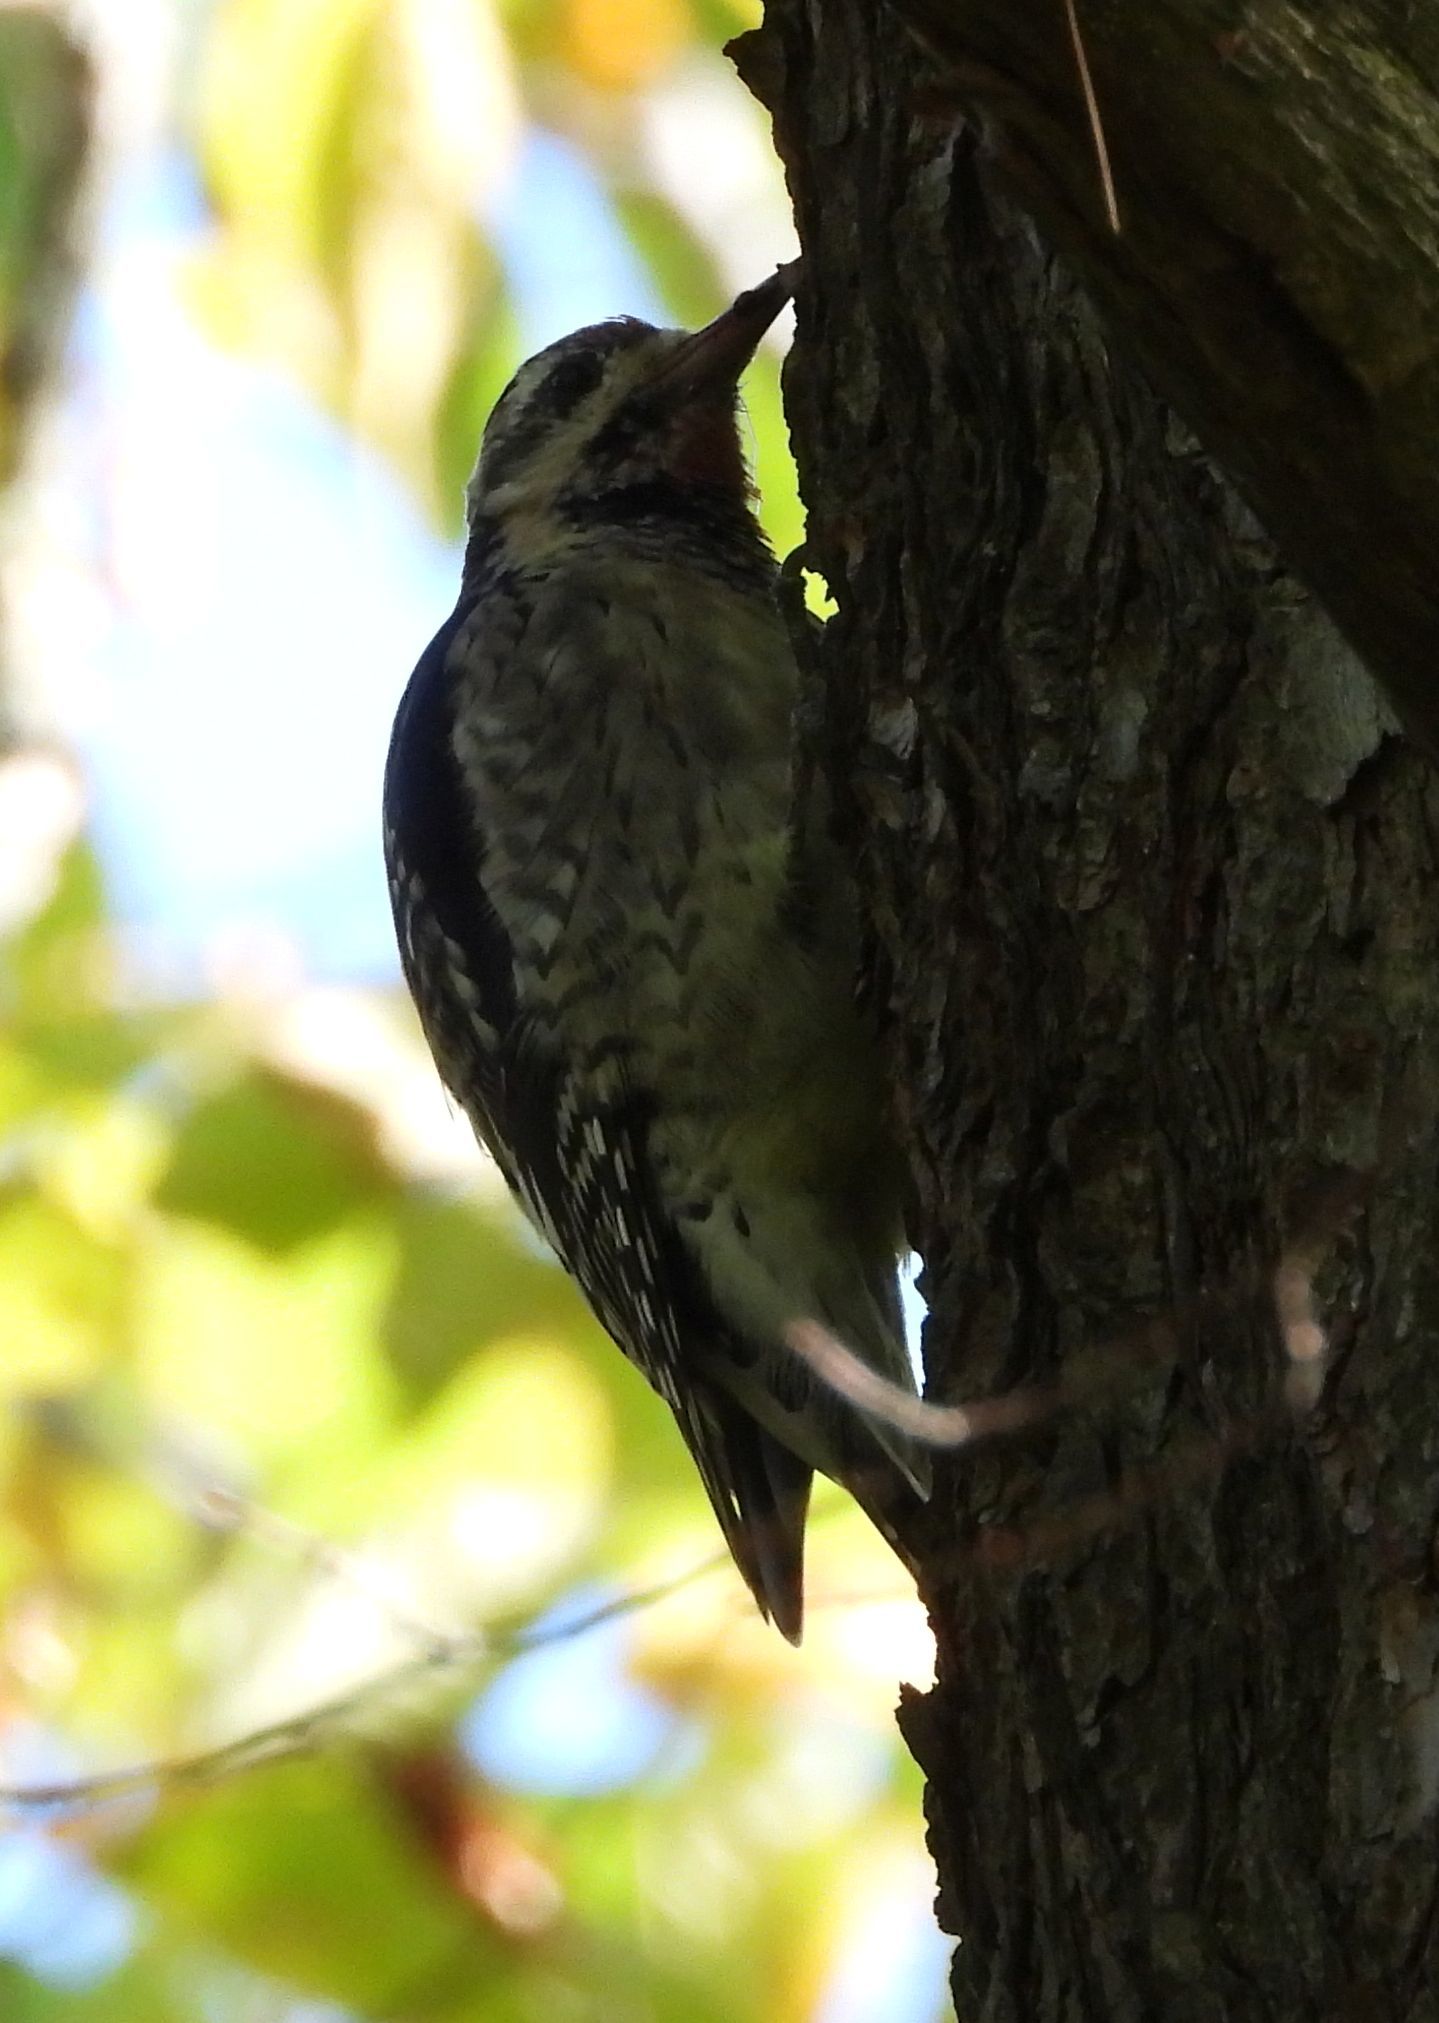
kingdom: Animalia
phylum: Chordata
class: Aves
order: Piciformes
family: Picidae
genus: Sphyrapicus
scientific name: Sphyrapicus varius
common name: Yellow-bellied sapsucker
